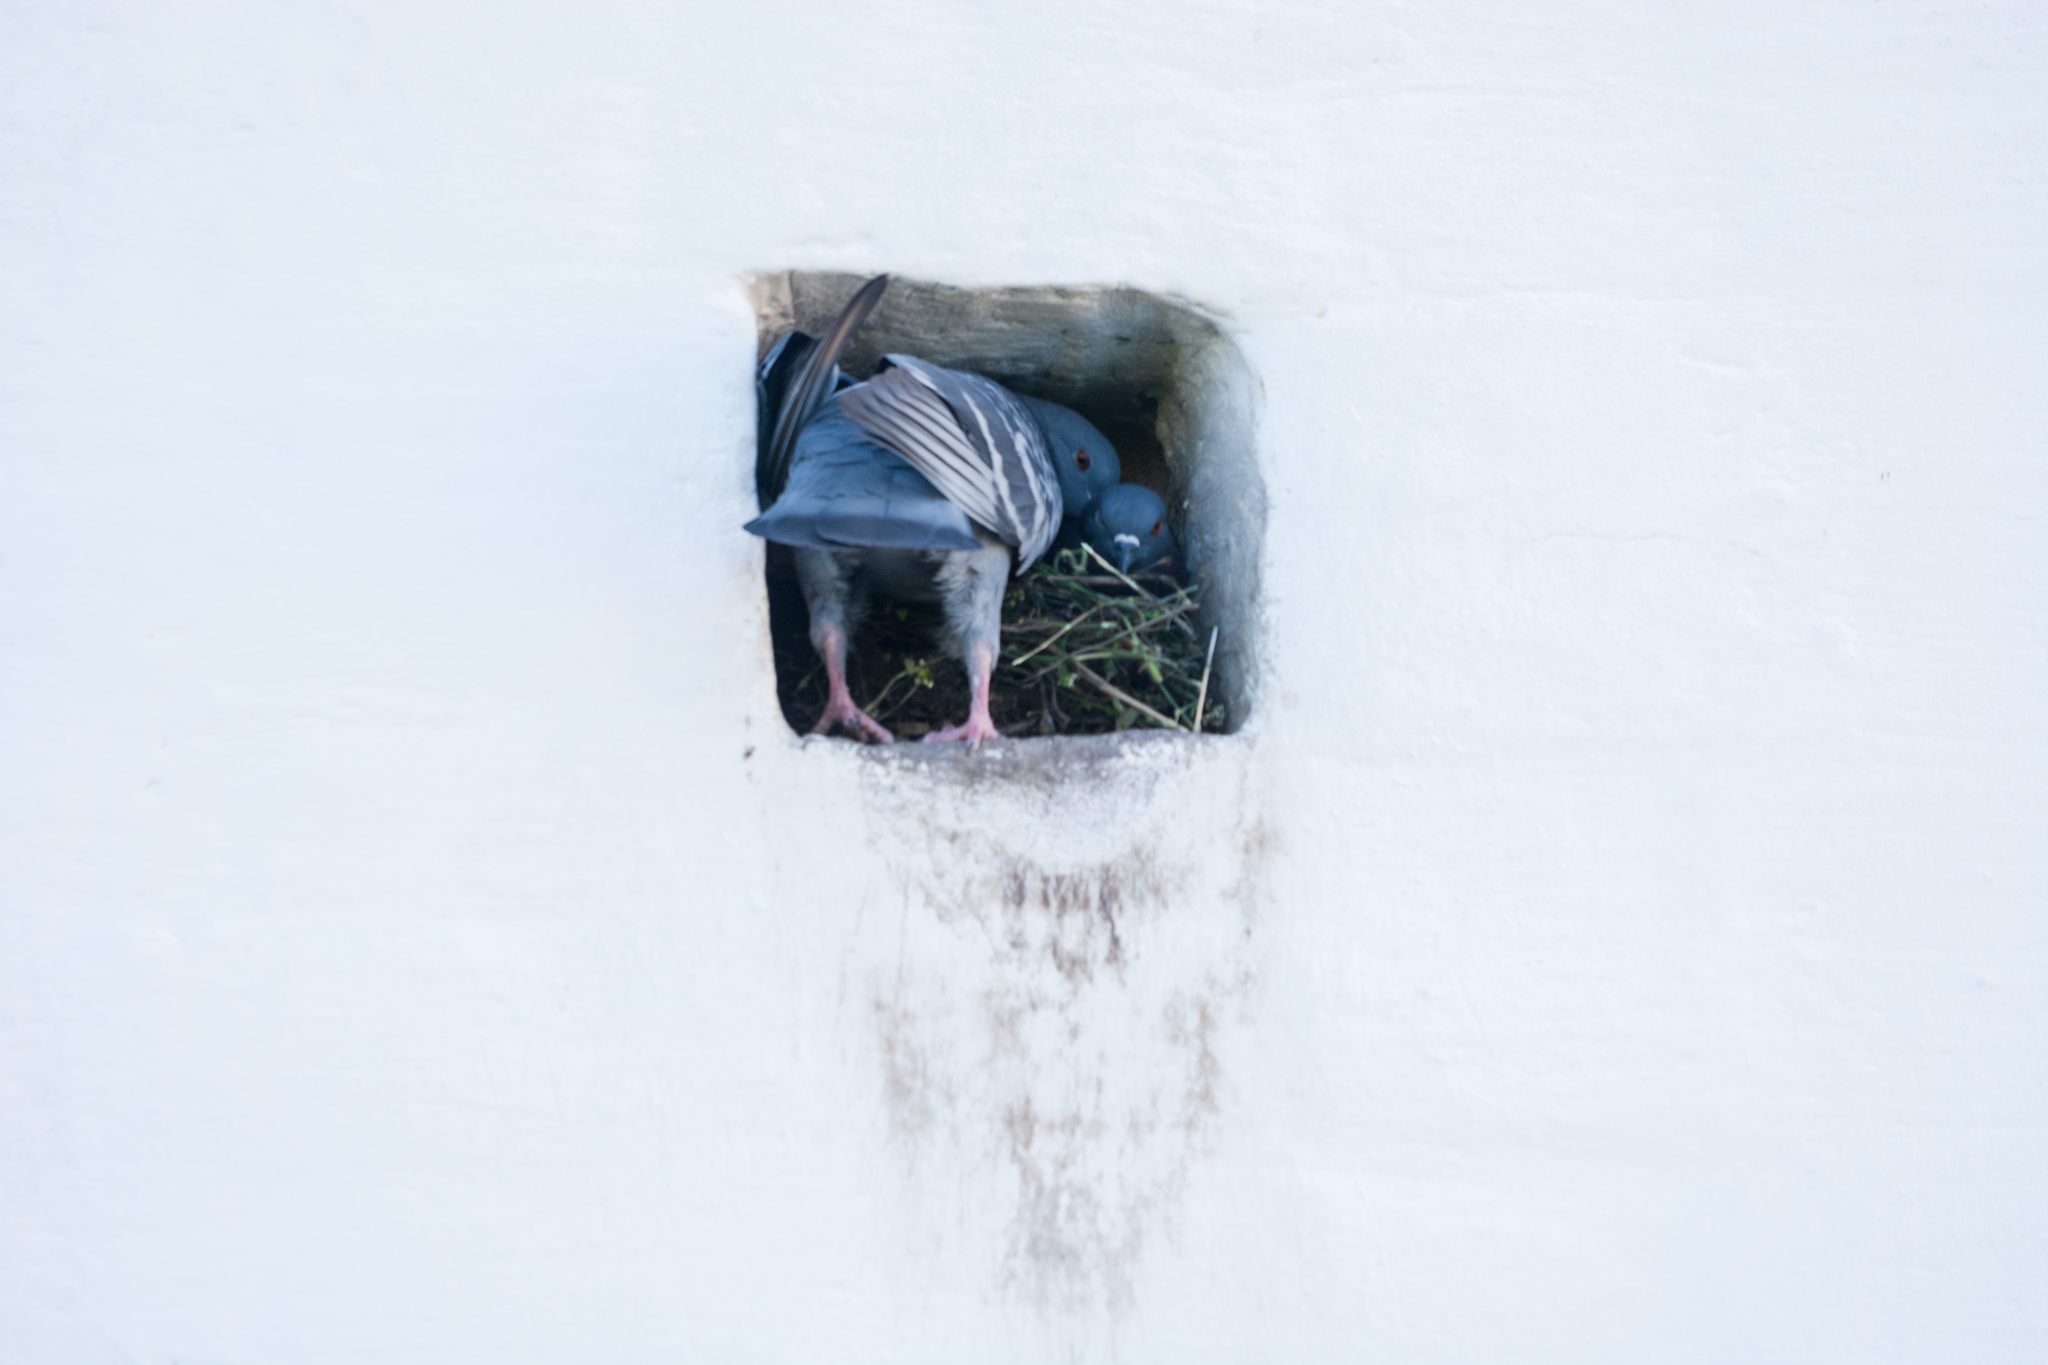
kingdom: Animalia
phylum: Chordata
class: Aves
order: Columbiformes
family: Columbidae
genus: Columba
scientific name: Columba livia
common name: Rock pigeon
